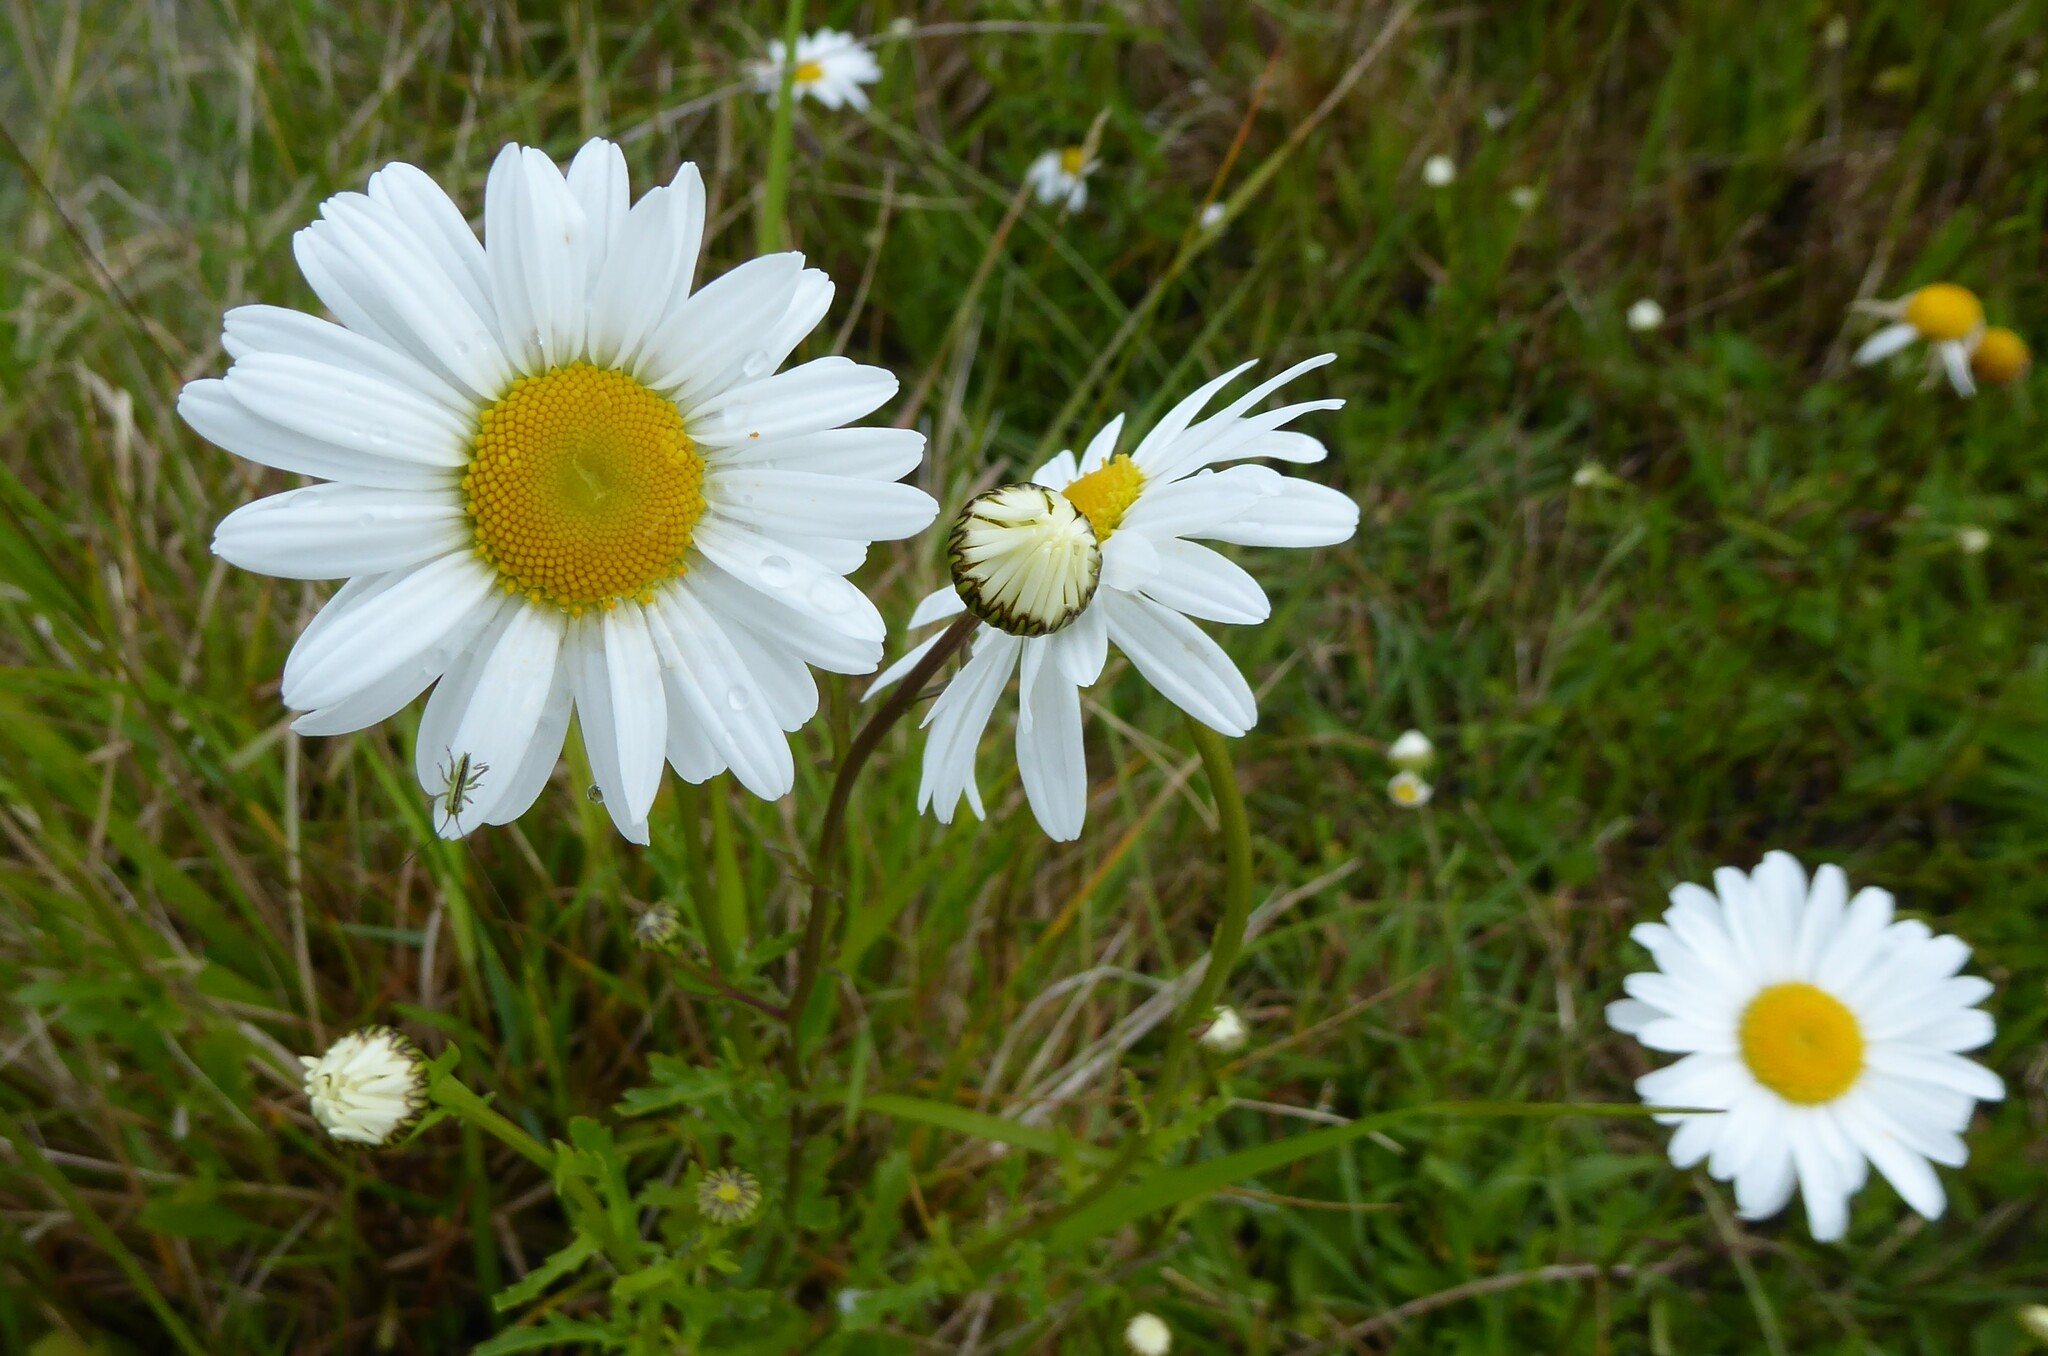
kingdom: Plantae
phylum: Tracheophyta
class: Magnoliopsida
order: Asterales
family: Asteraceae
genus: Leucanthemum
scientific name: Leucanthemum vulgare
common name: Oxeye daisy
